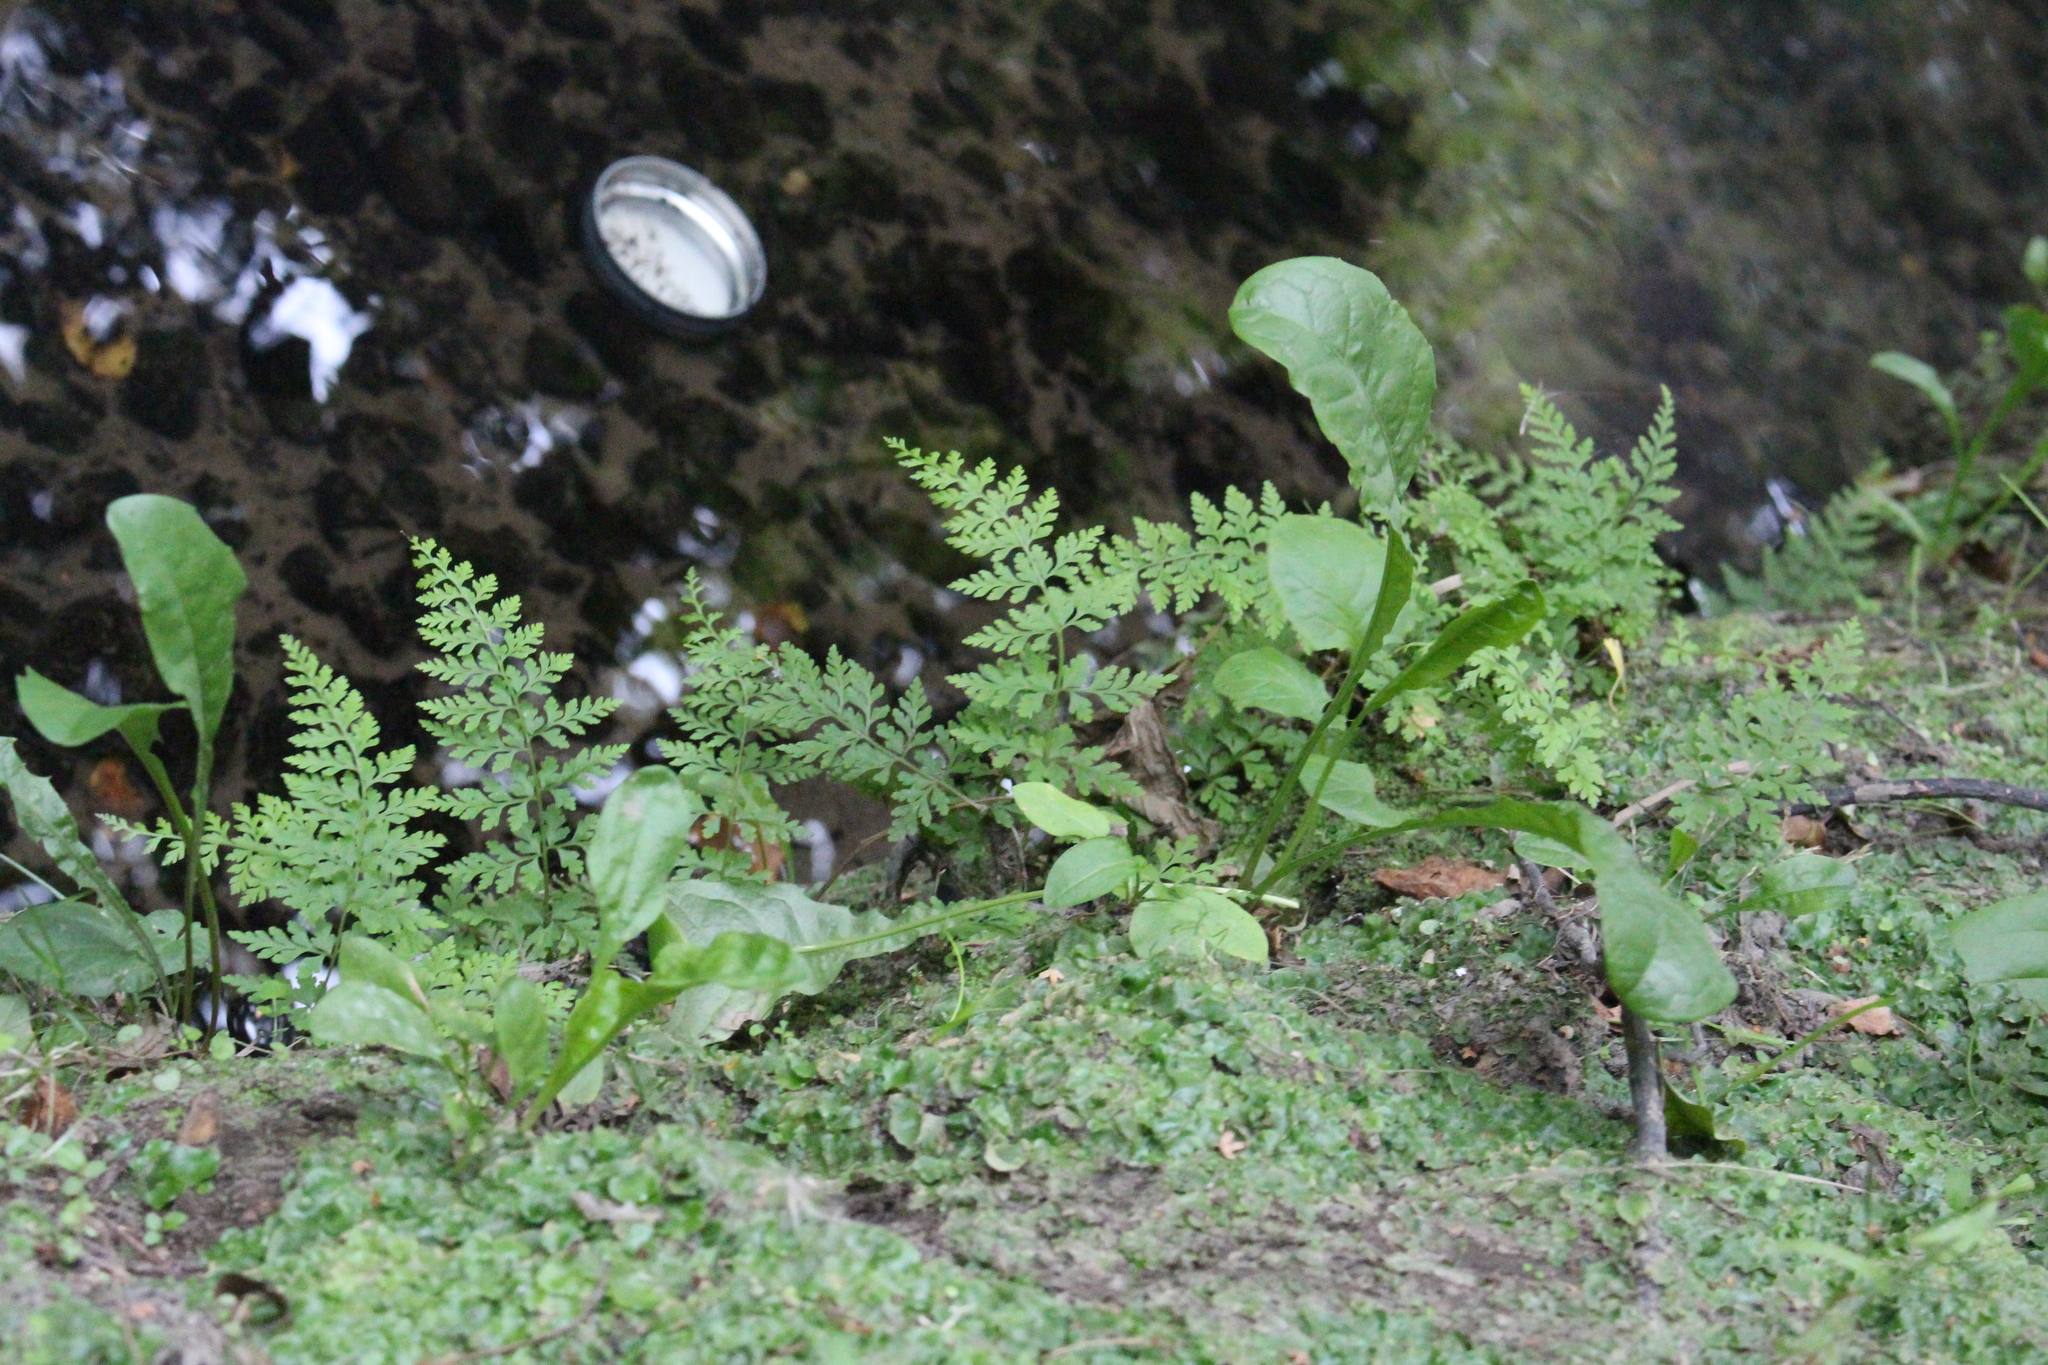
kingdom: Plantae
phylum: Tracheophyta
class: Polypodiopsida
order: Polypodiales
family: Cystopteridaceae
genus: Cystopteris
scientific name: Cystopteris fragilis
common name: Brittle bladder fern
